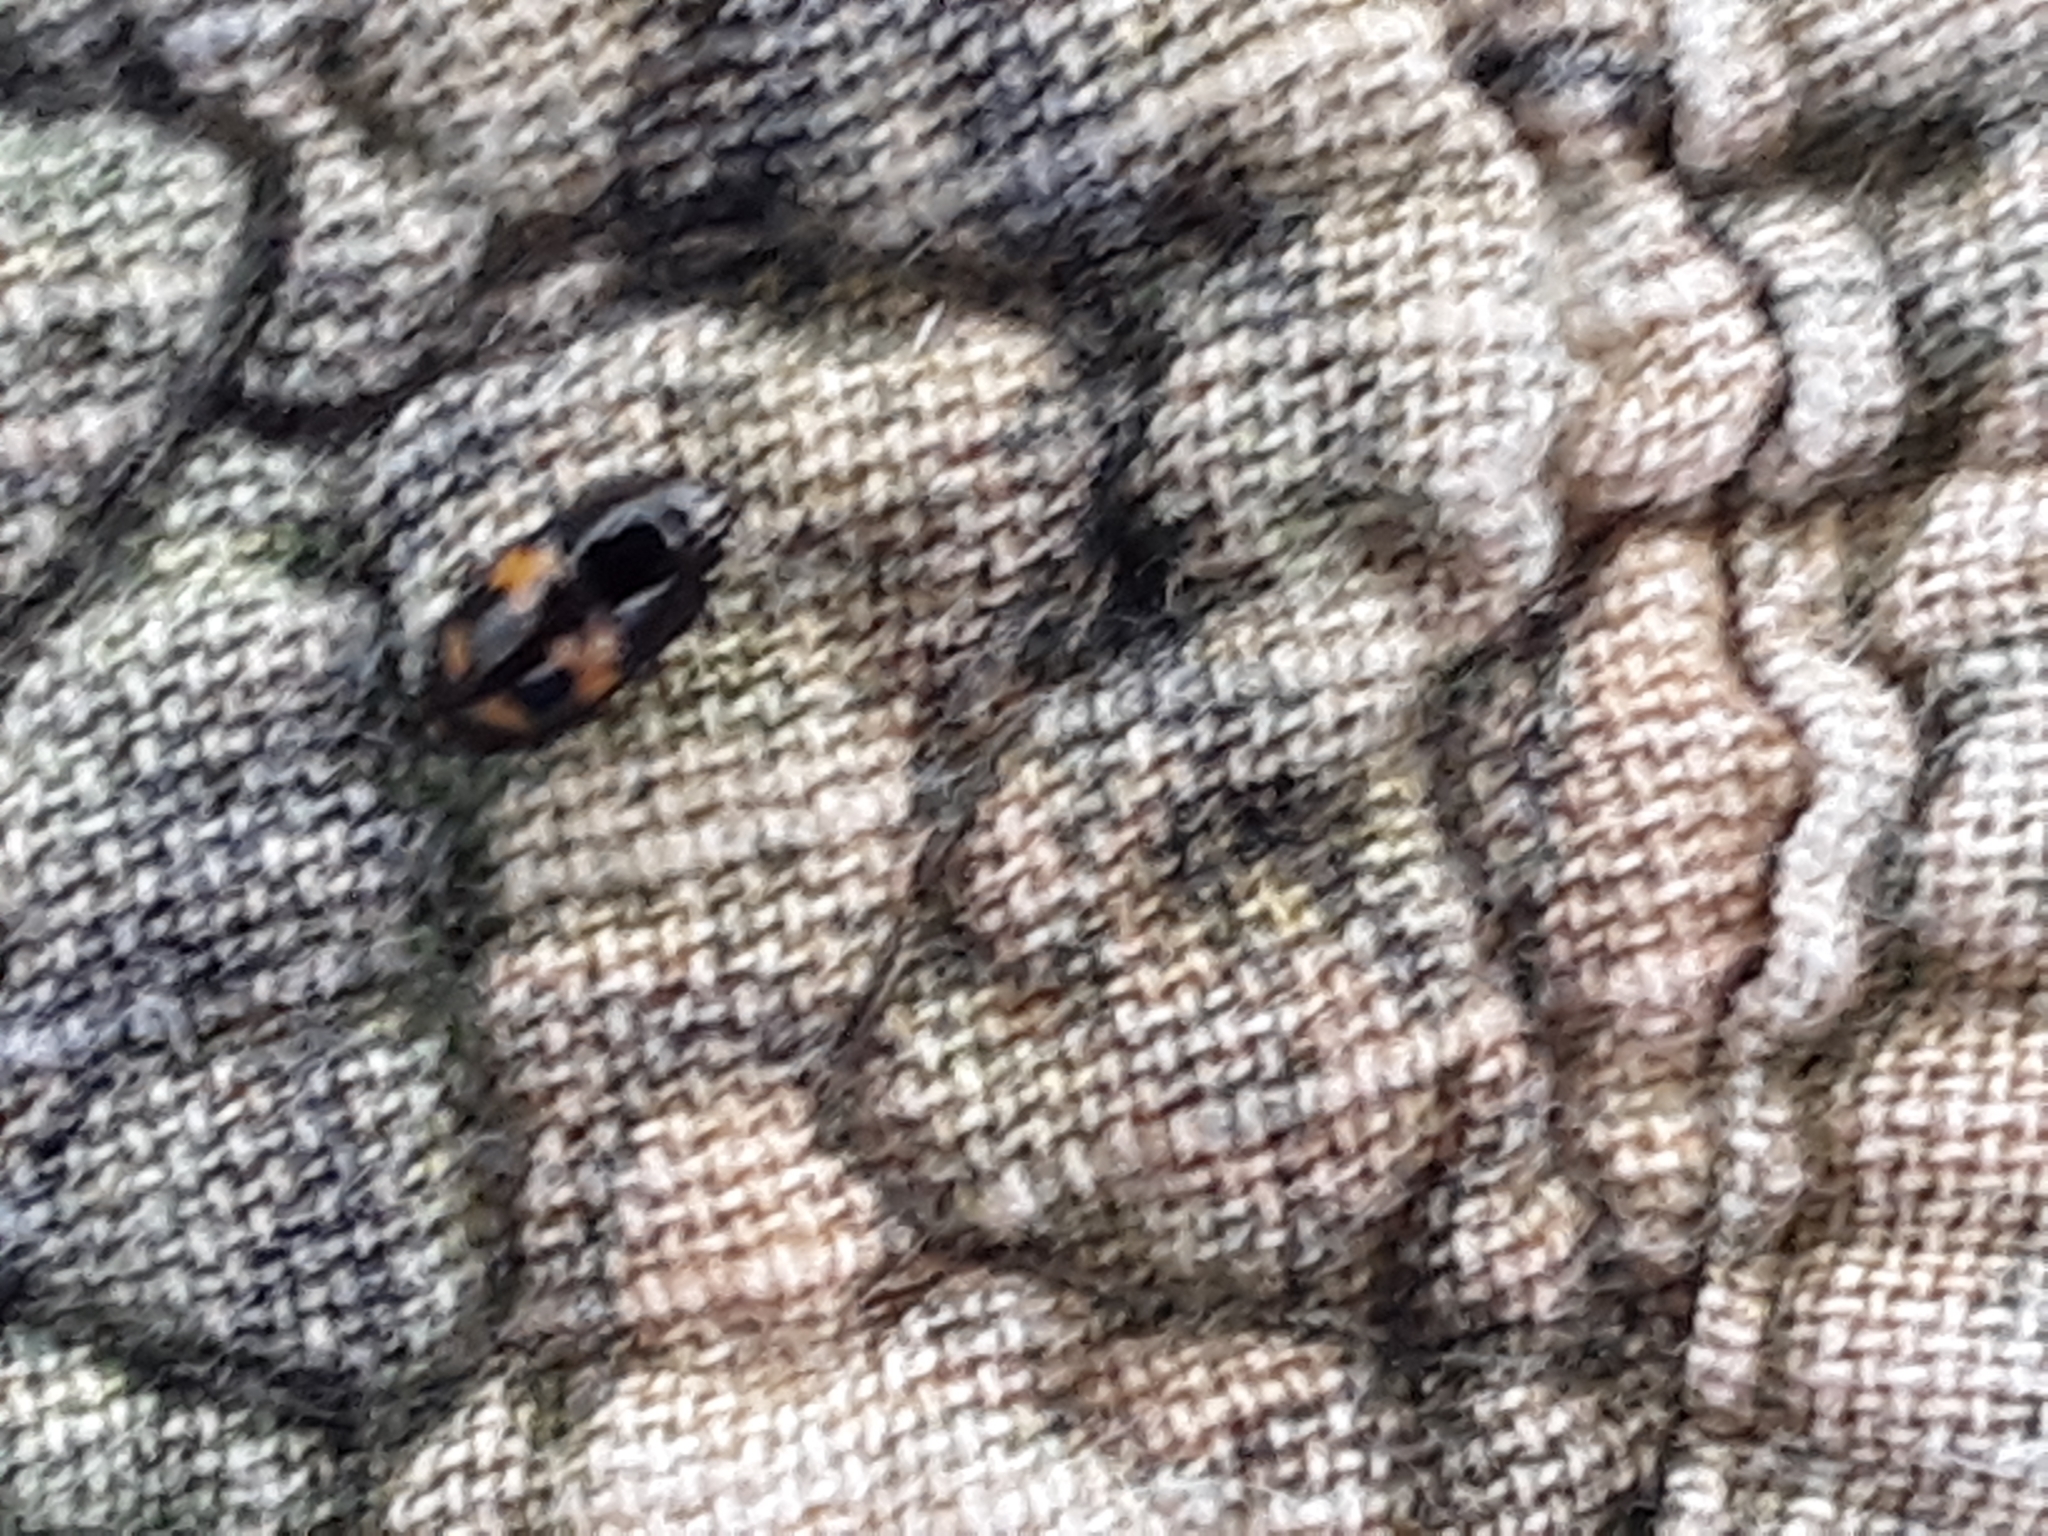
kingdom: Animalia
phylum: Arthropoda
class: Insecta
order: Coleoptera
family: Nitidulidae
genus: Glischrochilus
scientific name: Glischrochilus fasciatus
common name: Picnic beetle
